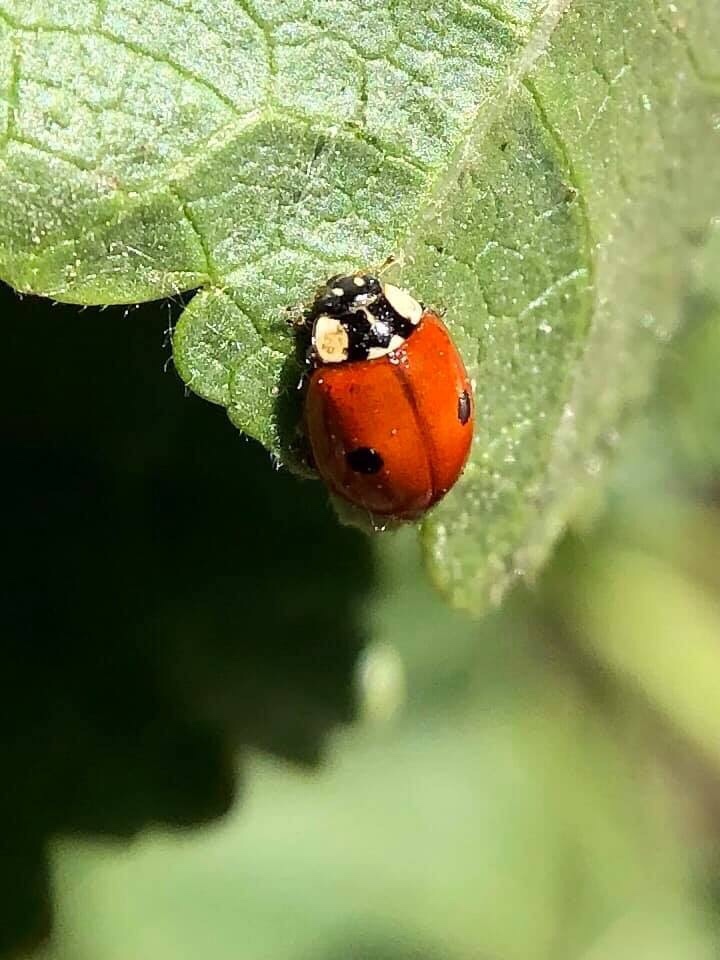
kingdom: Animalia
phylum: Arthropoda
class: Insecta
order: Coleoptera
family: Coccinellidae
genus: Adalia
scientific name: Adalia bipunctata
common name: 2-spot ladybird
